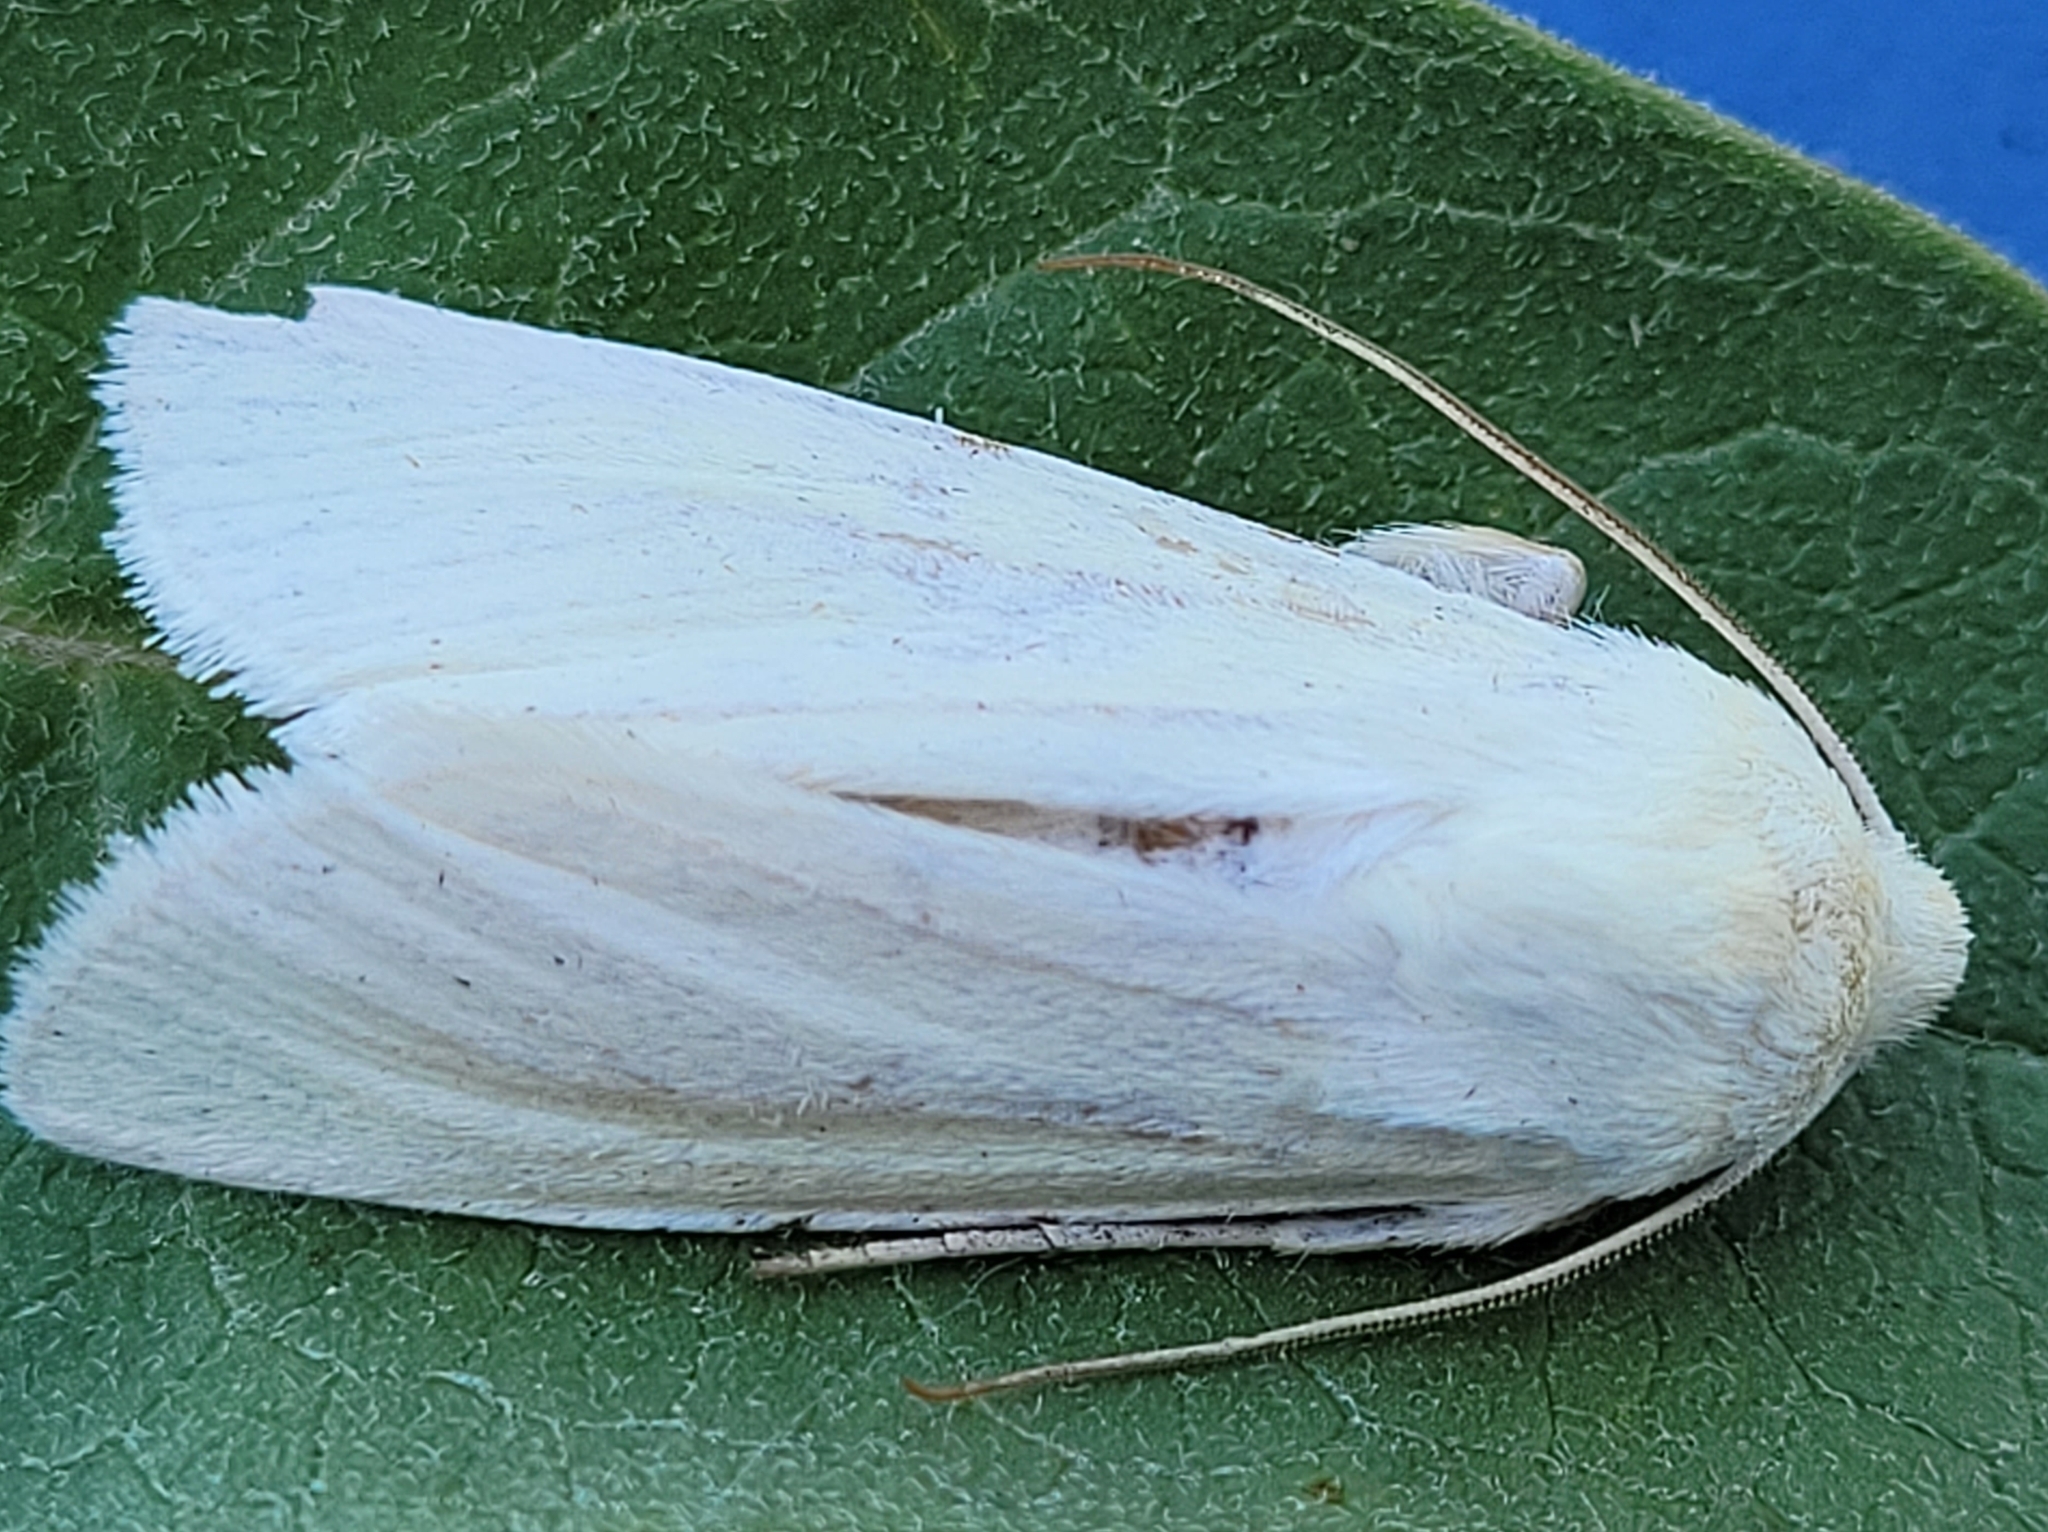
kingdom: Animalia
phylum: Arthropoda
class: Insecta
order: Lepidoptera
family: Noctuidae
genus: Copablepharon
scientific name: Copablepharon viridisparsa
